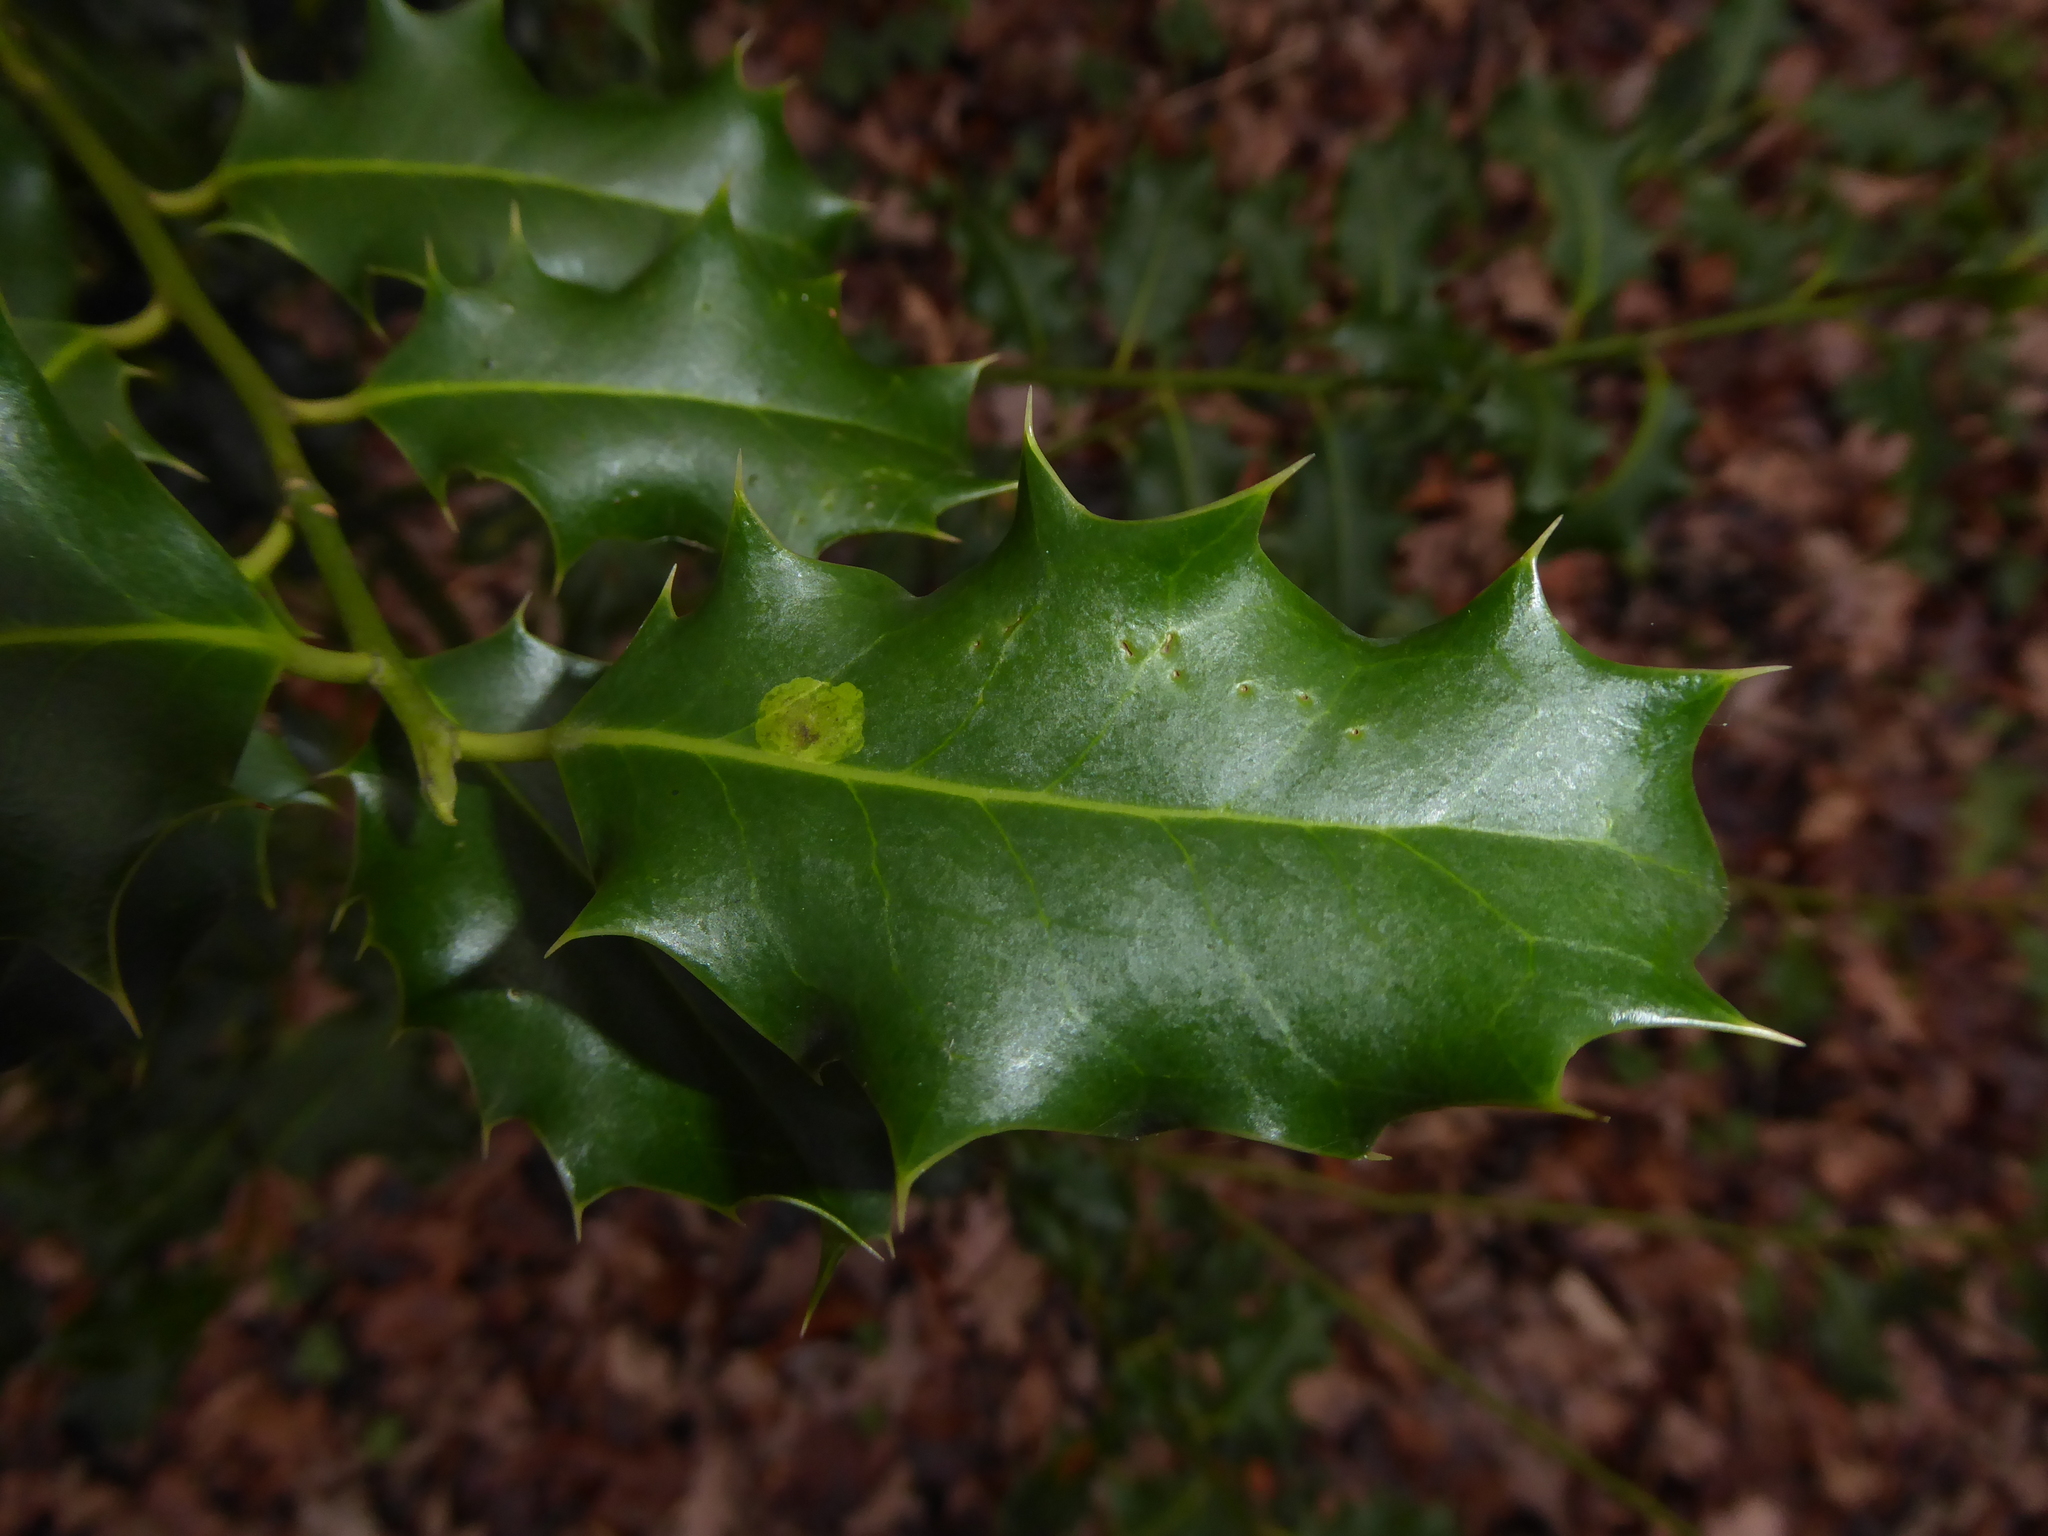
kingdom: Animalia
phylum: Arthropoda
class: Insecta
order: Diptera
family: Agromyzidae
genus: Phytomyza
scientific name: Phytomyza ilicis
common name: Holly leafminer
